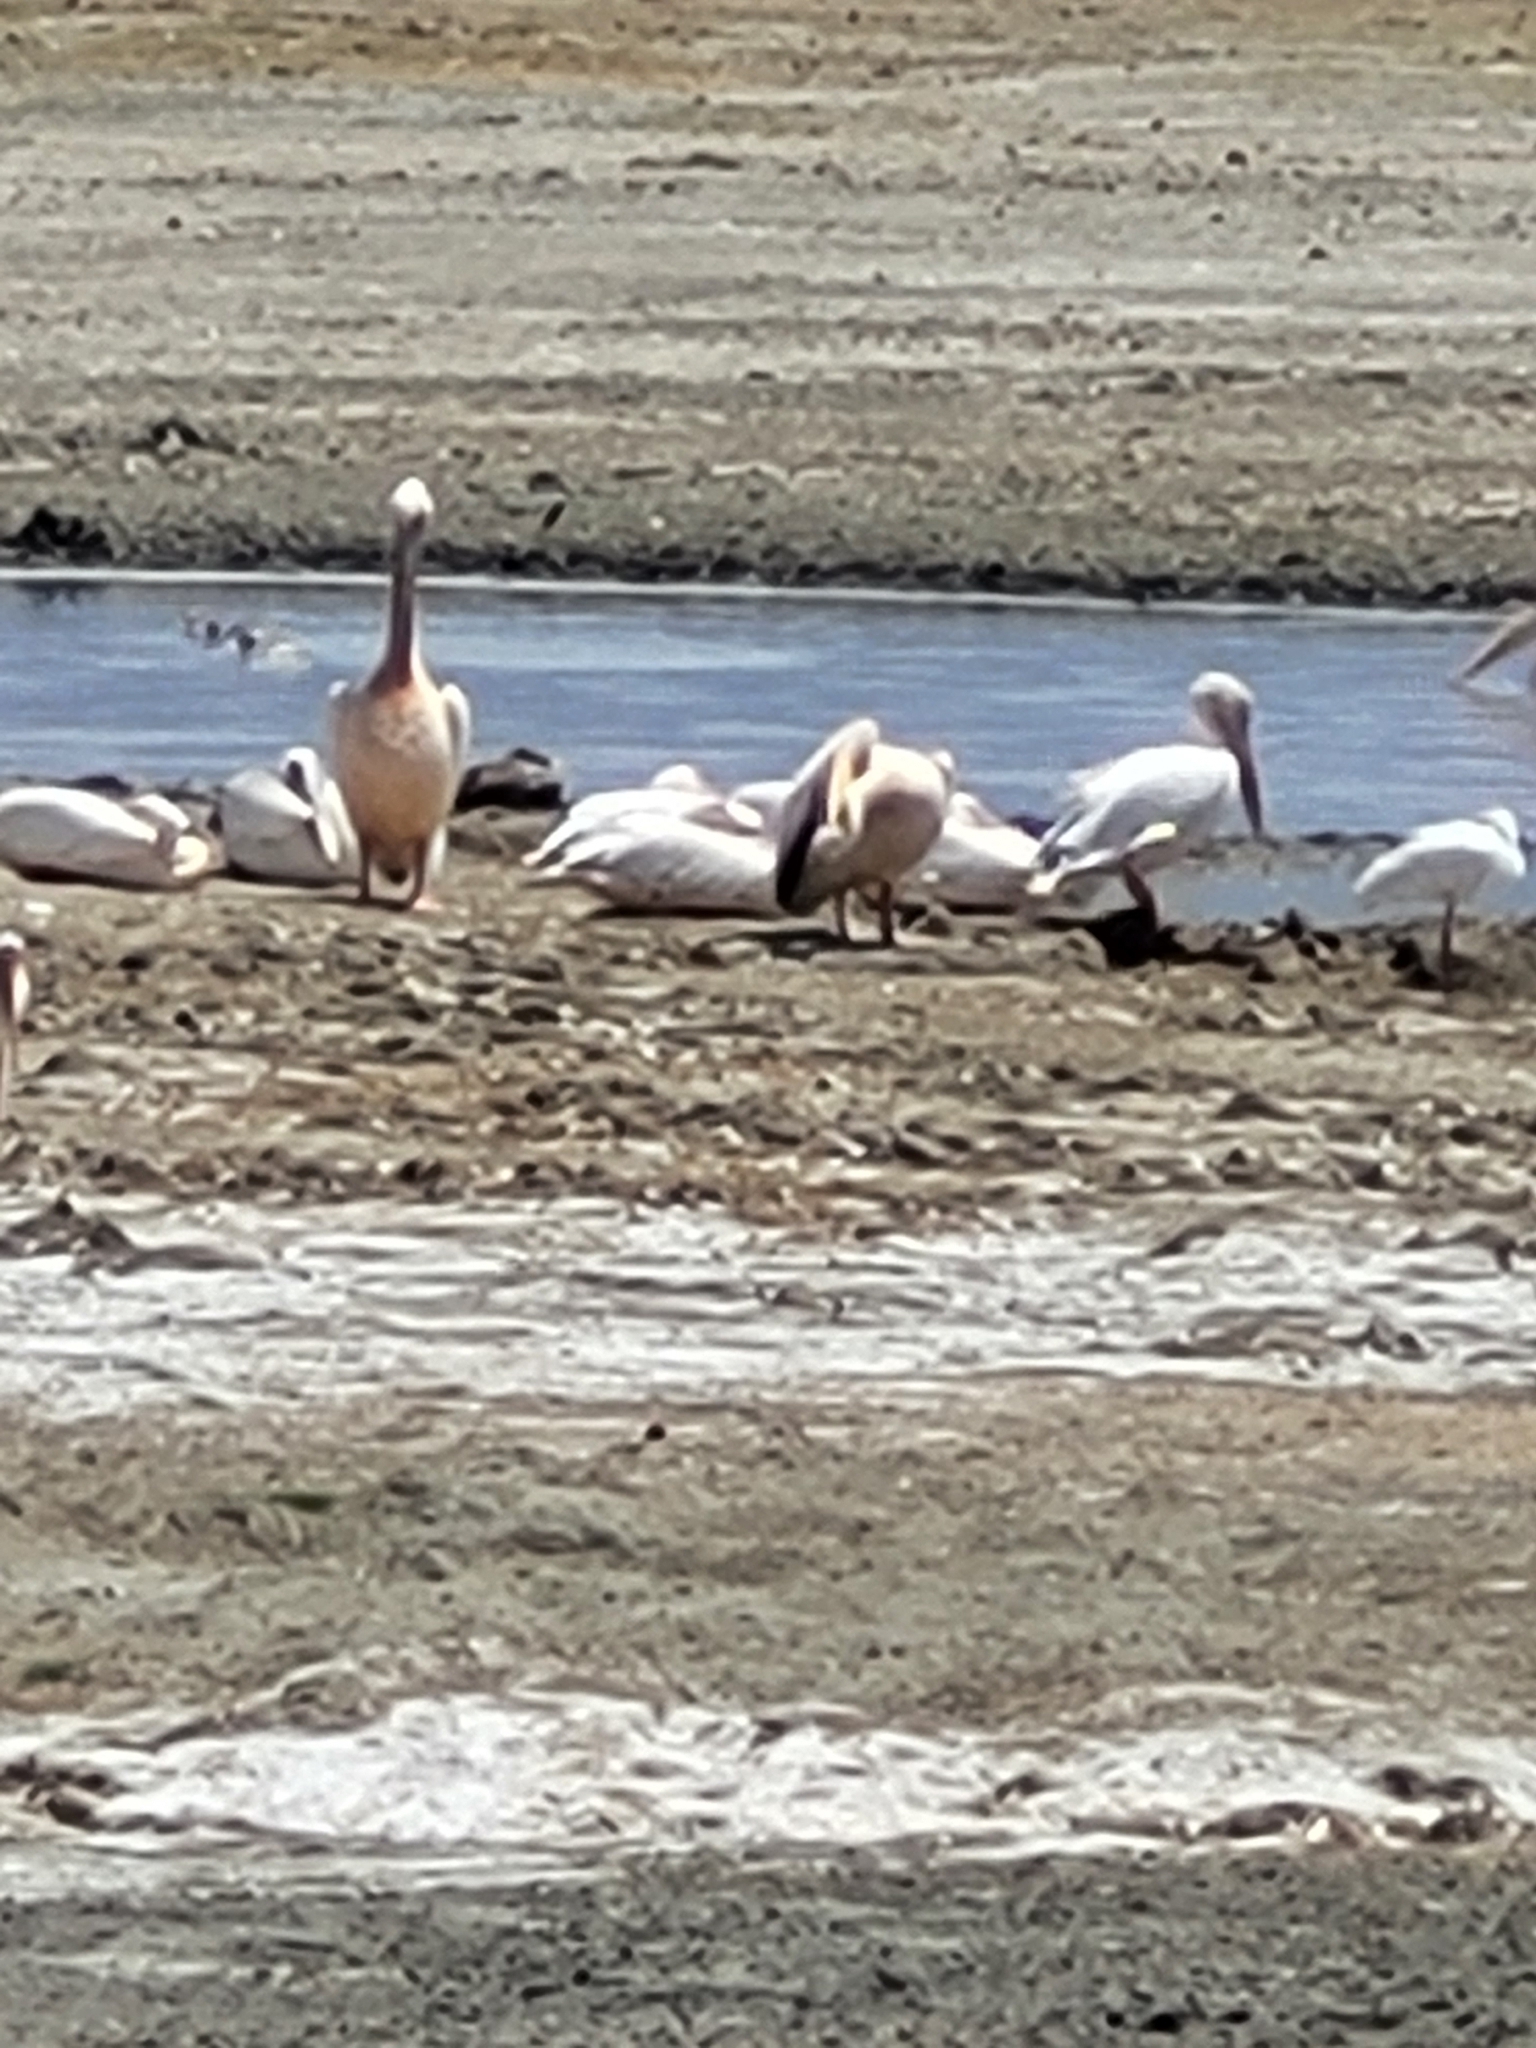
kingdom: Animalia
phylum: Chordata
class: Aves
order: Pelecaniformes
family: Pelecanidae
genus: Pelecanus
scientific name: Pelecanus onocrotalus
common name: Great white pelican
